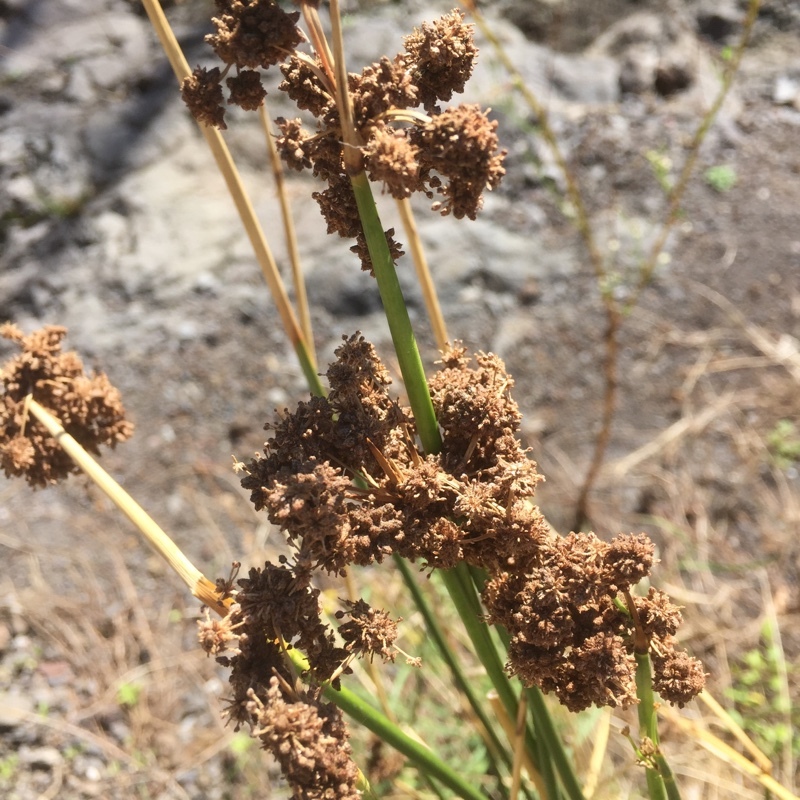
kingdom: Plantae
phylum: Tracheophyta
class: Liliopsida
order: Poales
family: Cyperaceae
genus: Scirpoides
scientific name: Scirpoides holoschoenus
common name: Round-headed club-rush
